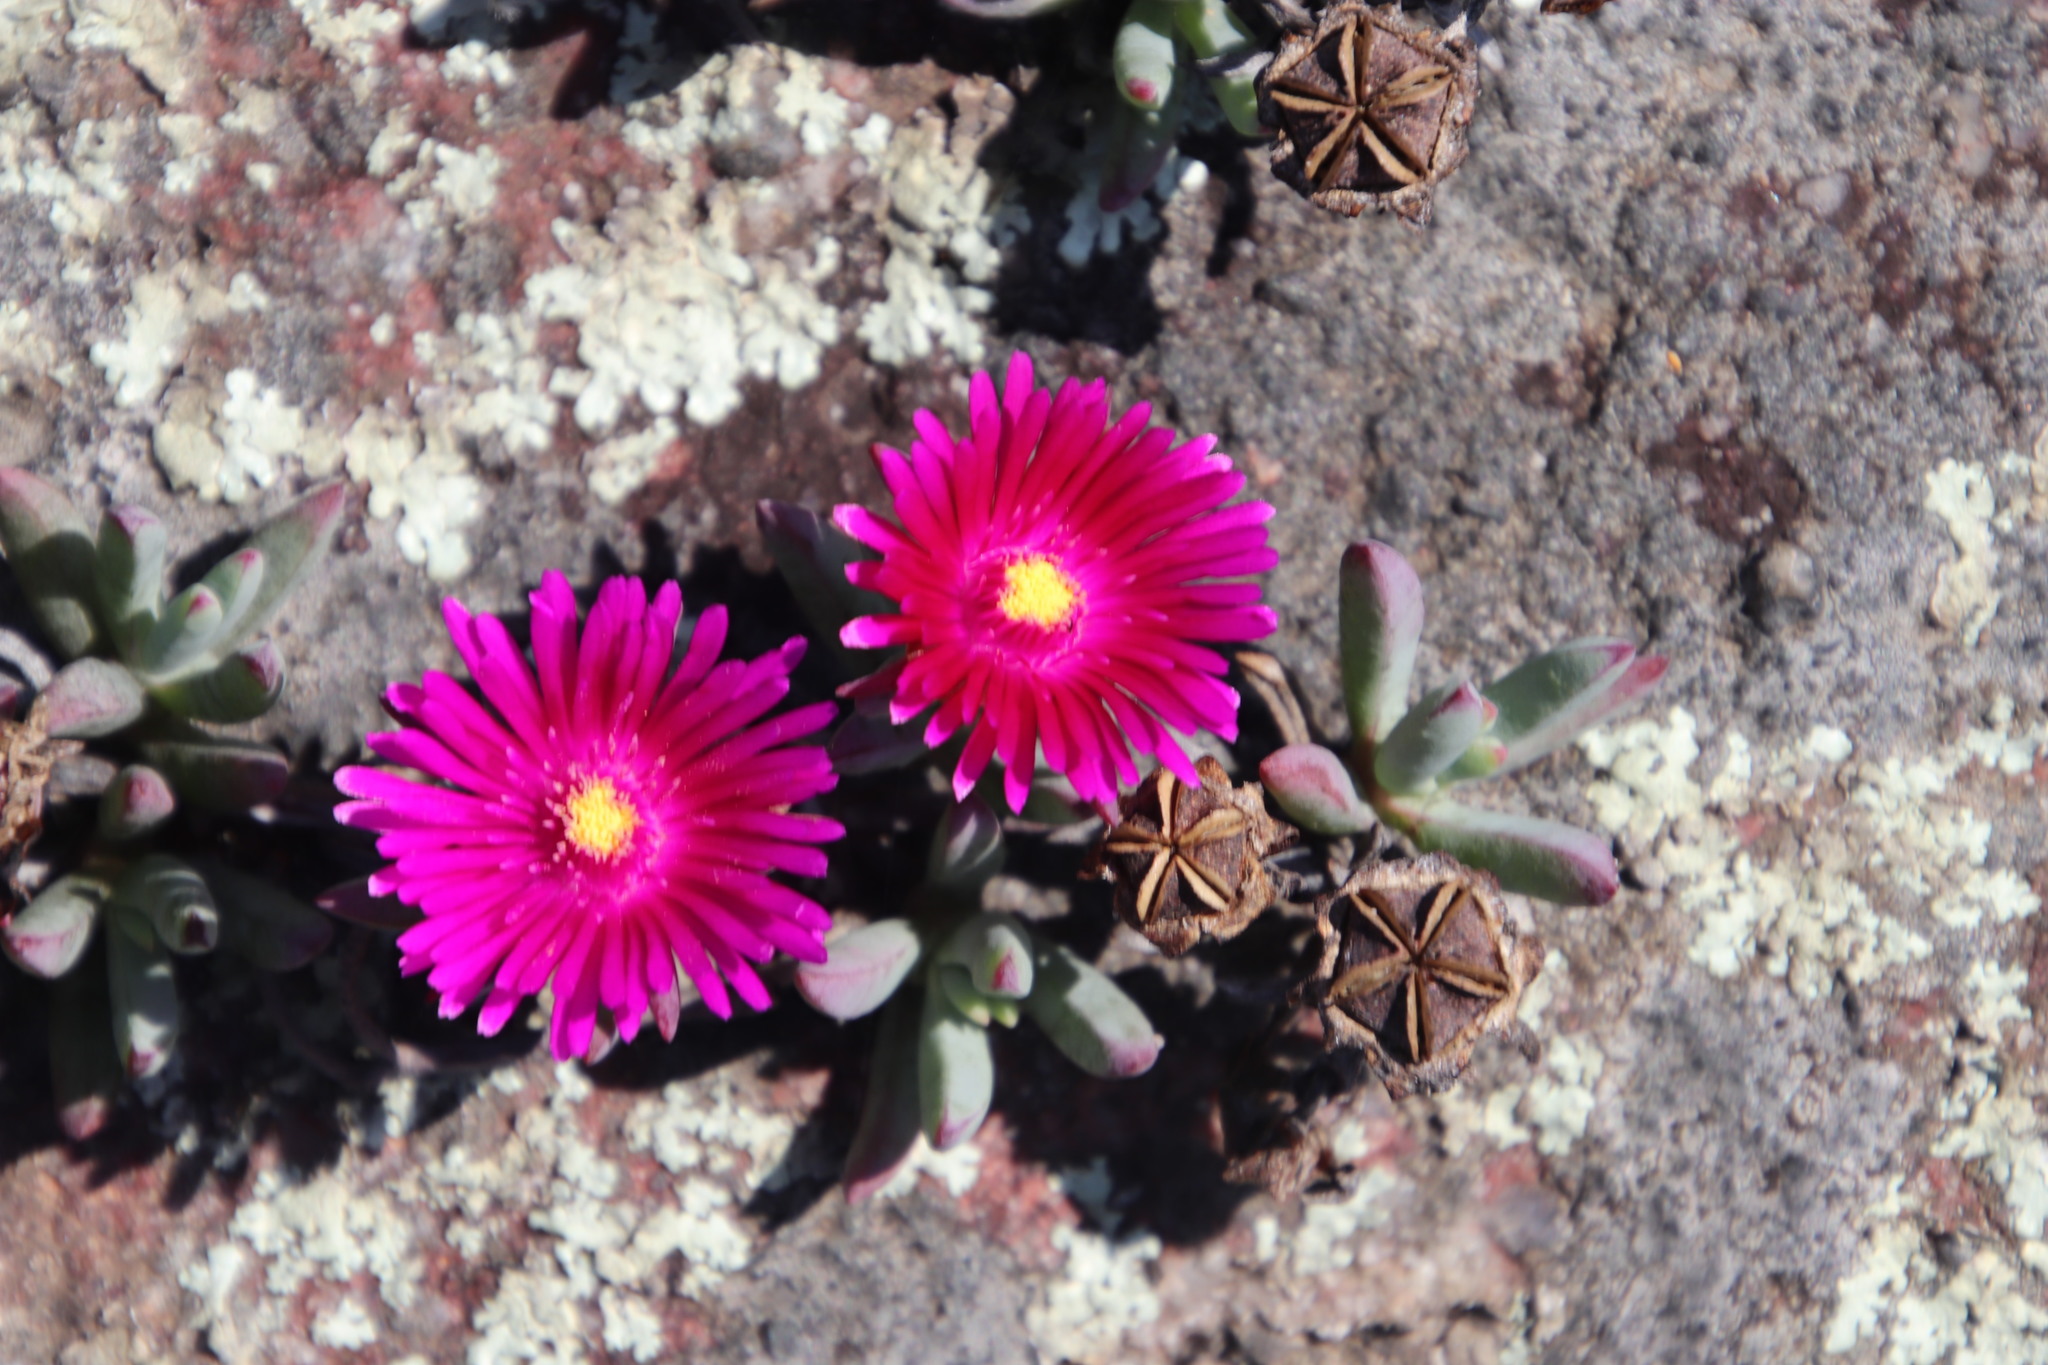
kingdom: Plantae
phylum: Tracheophyta
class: Magnoliopsida
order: Caryophyllales
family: Aizoaceae
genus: Lampranthus
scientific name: Lampranthus fugitans
